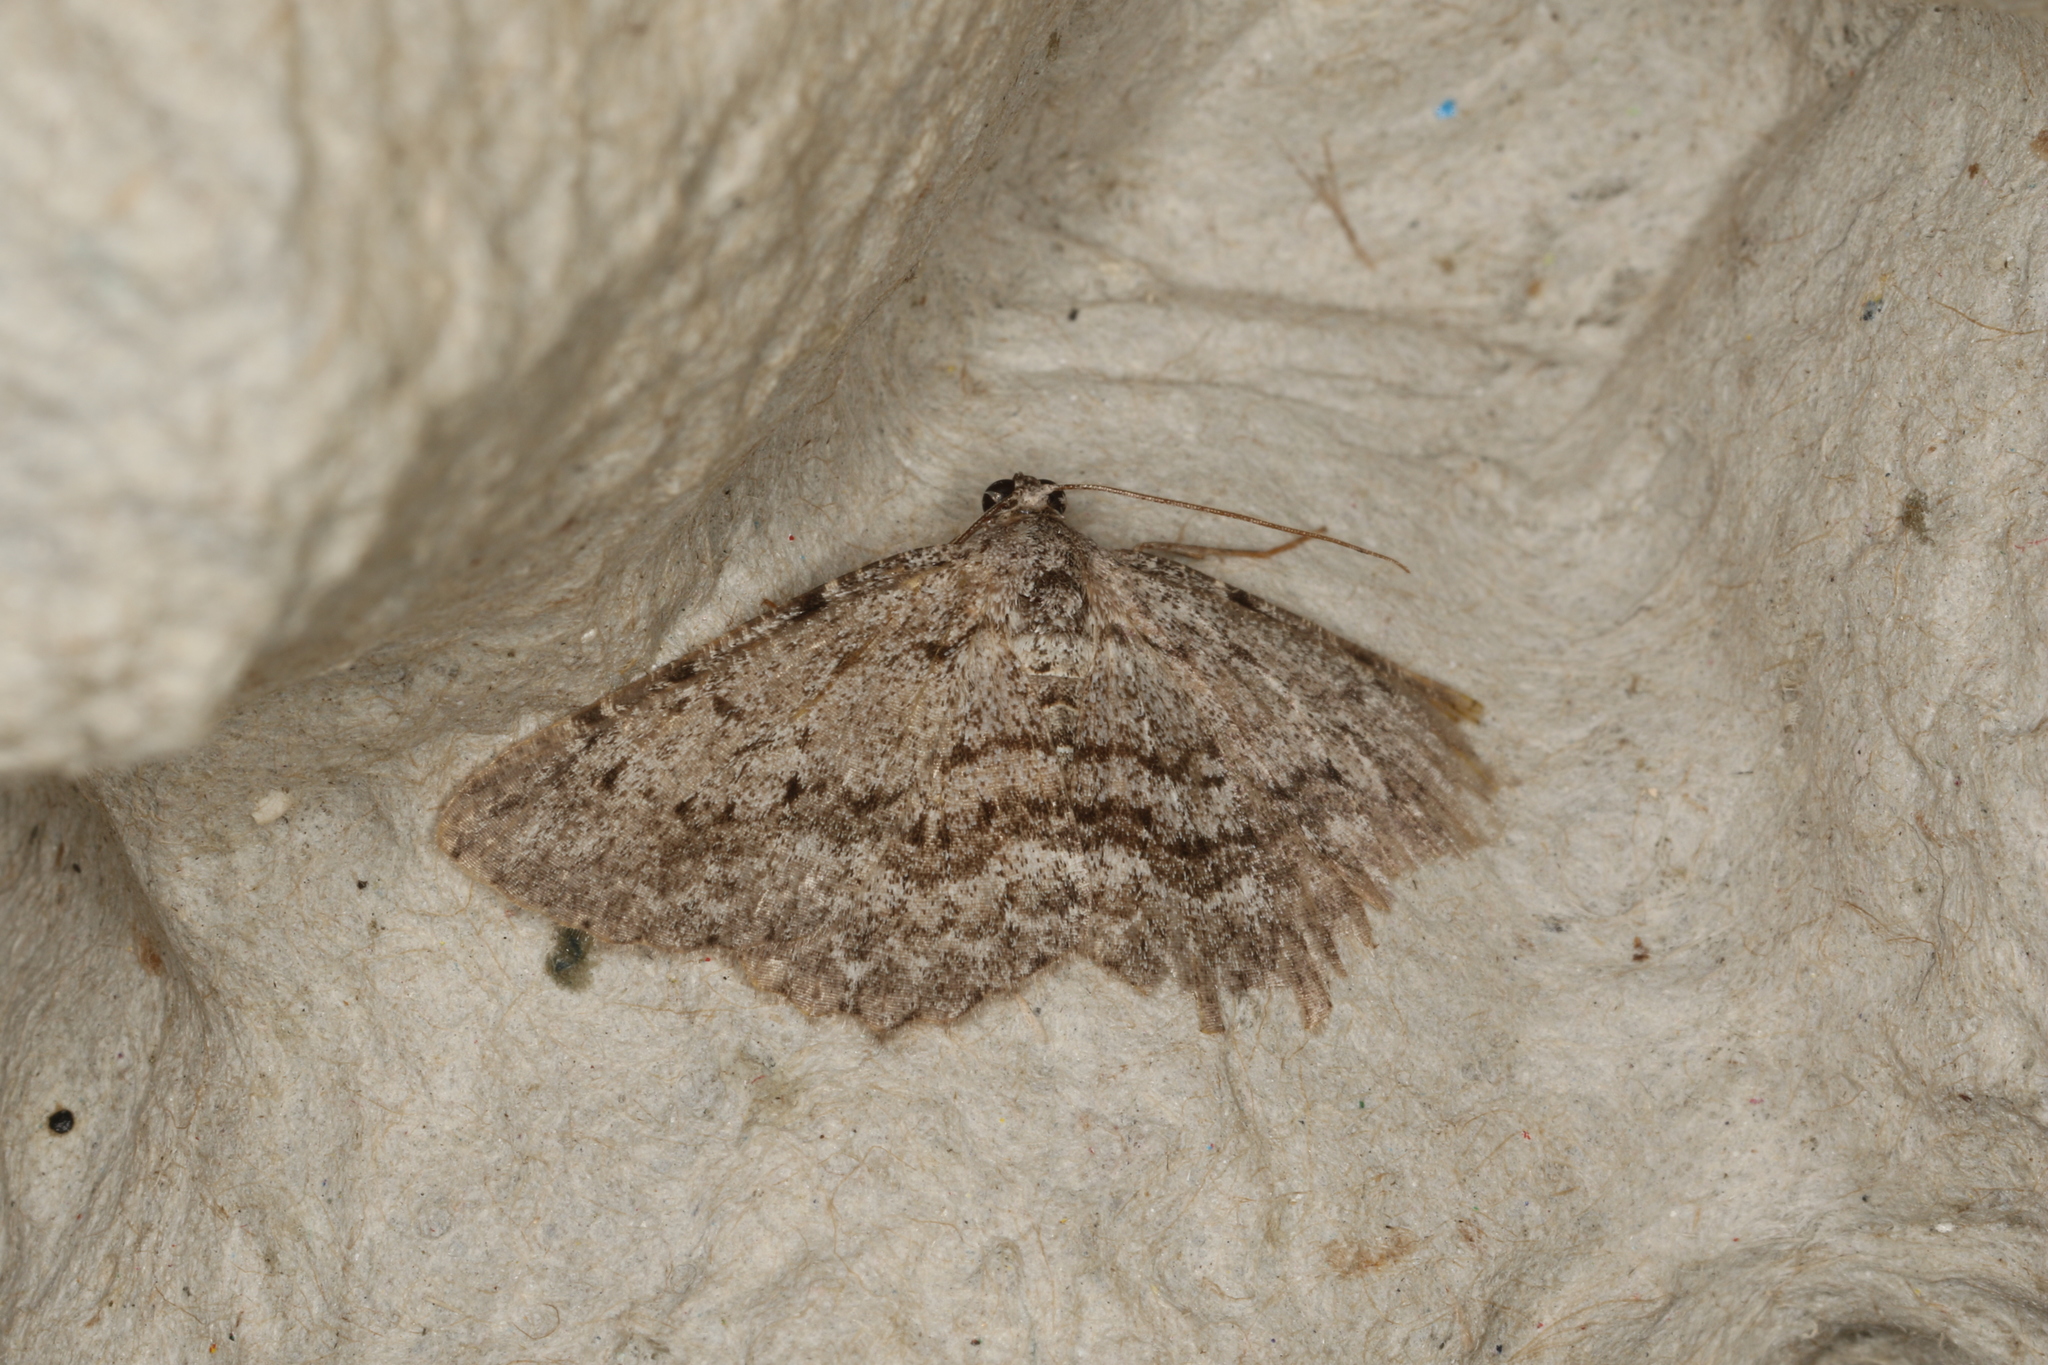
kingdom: Animalia
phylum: Arthropoda
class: Insecta
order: Lepidoptera
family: Geometridae
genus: Psilosticha
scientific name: Psilosticha absorpta
